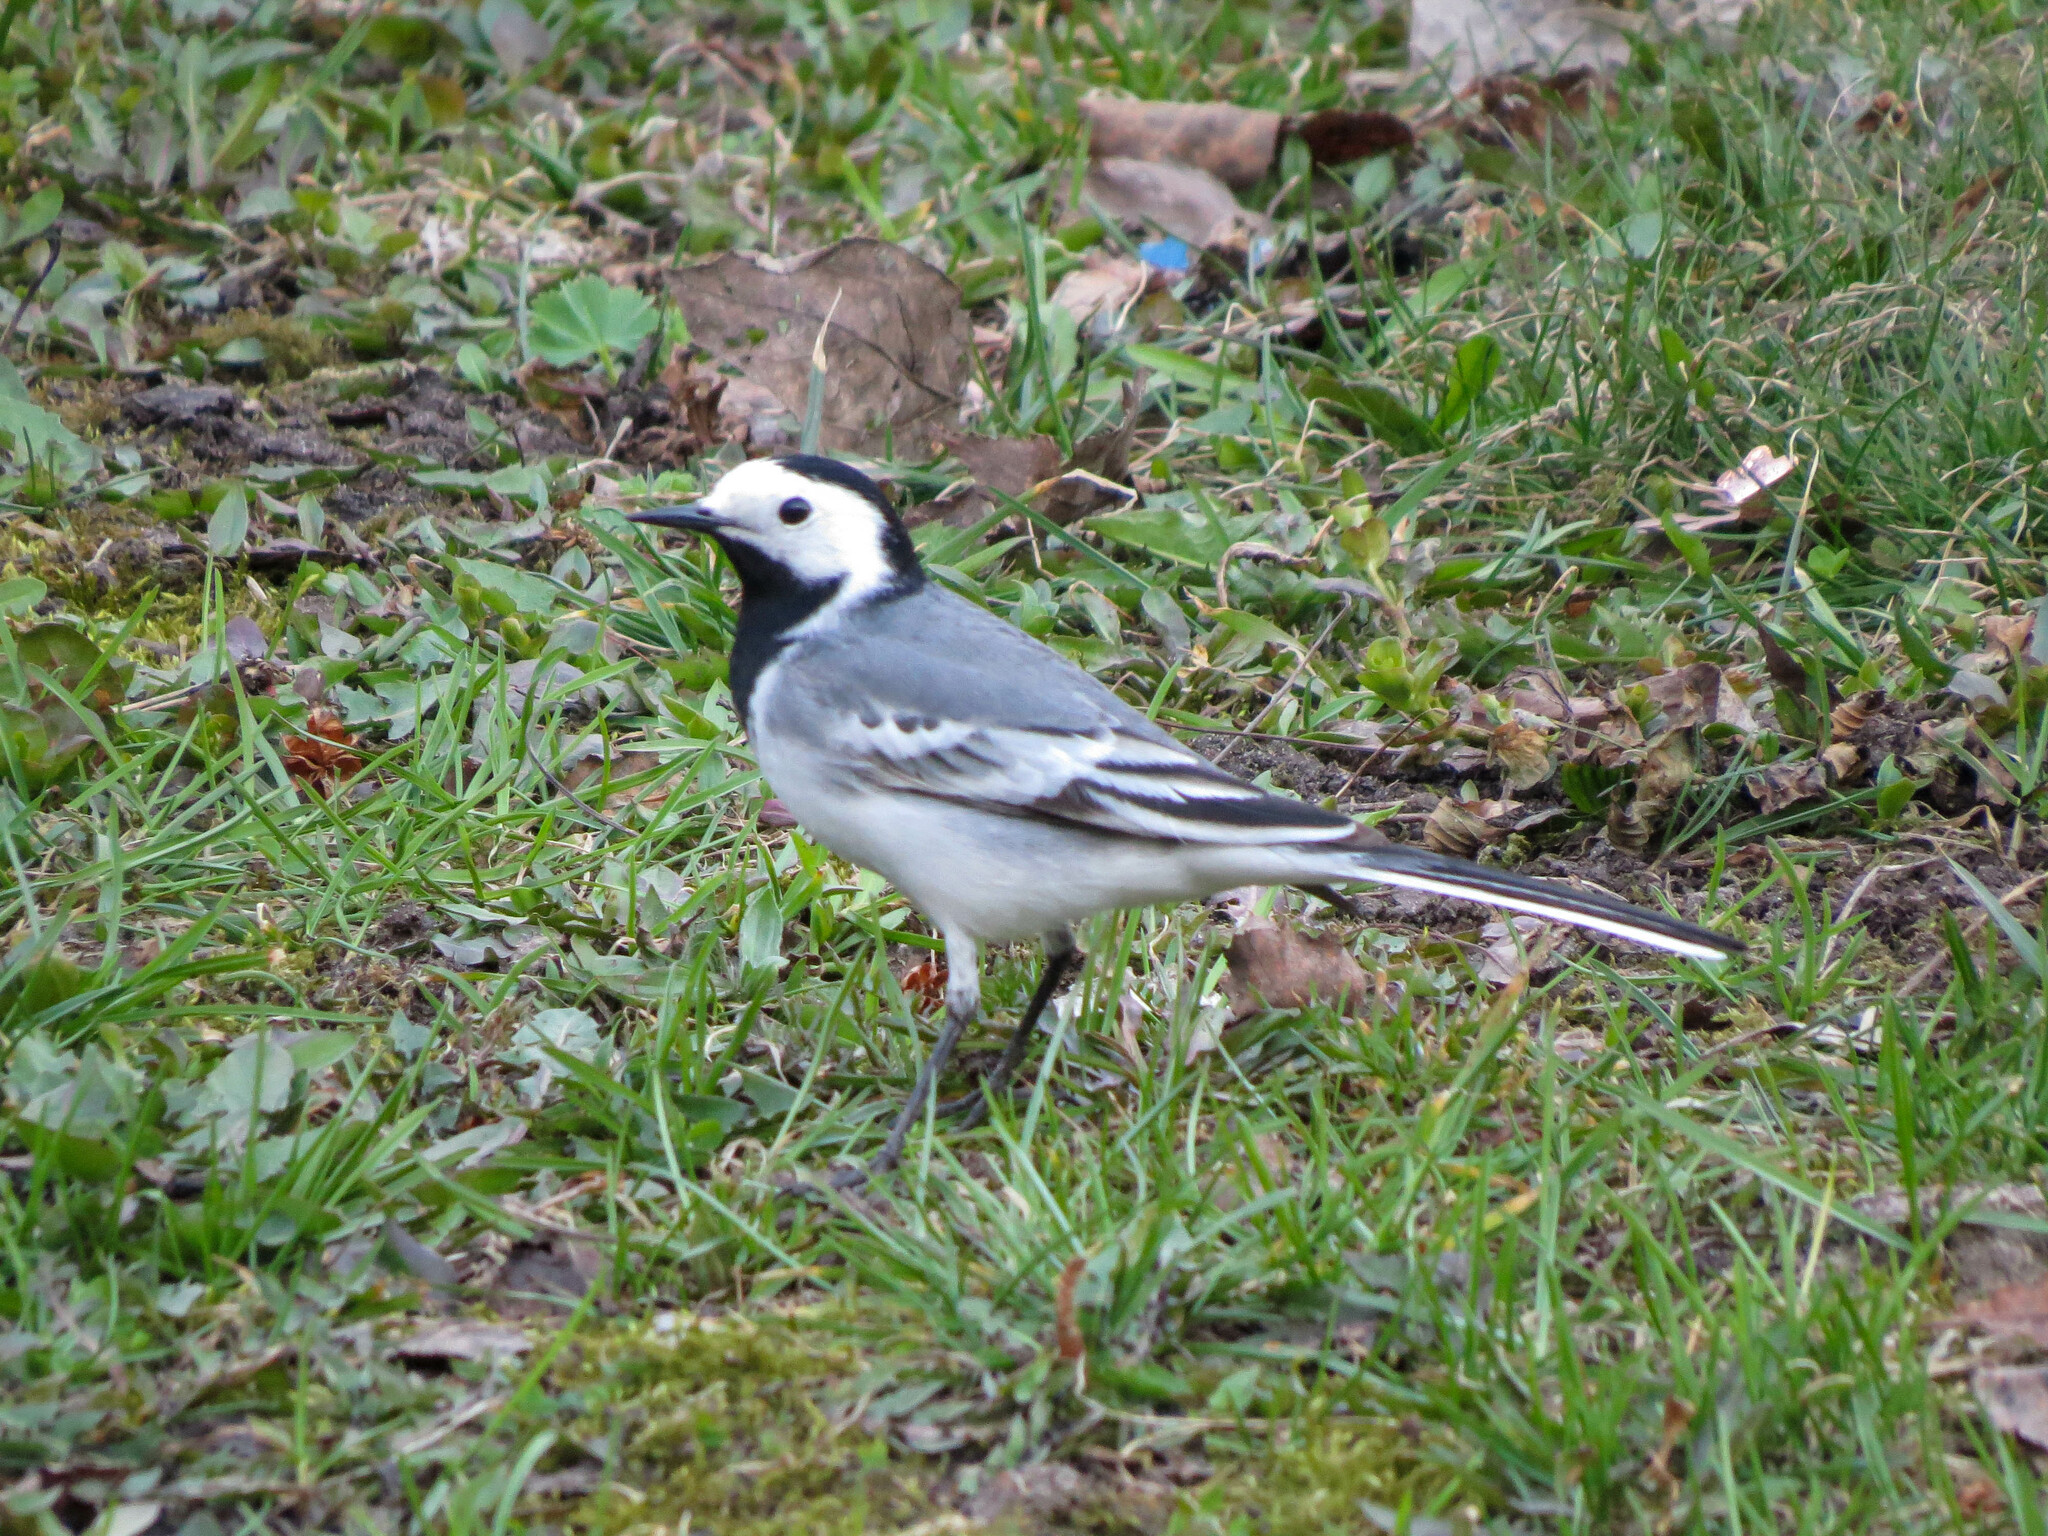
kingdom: Animalia
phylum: Chordata
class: Aves
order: Passeriformes
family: Motacillidae
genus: Motacilla
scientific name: Motacilla alba
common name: White wagtail
